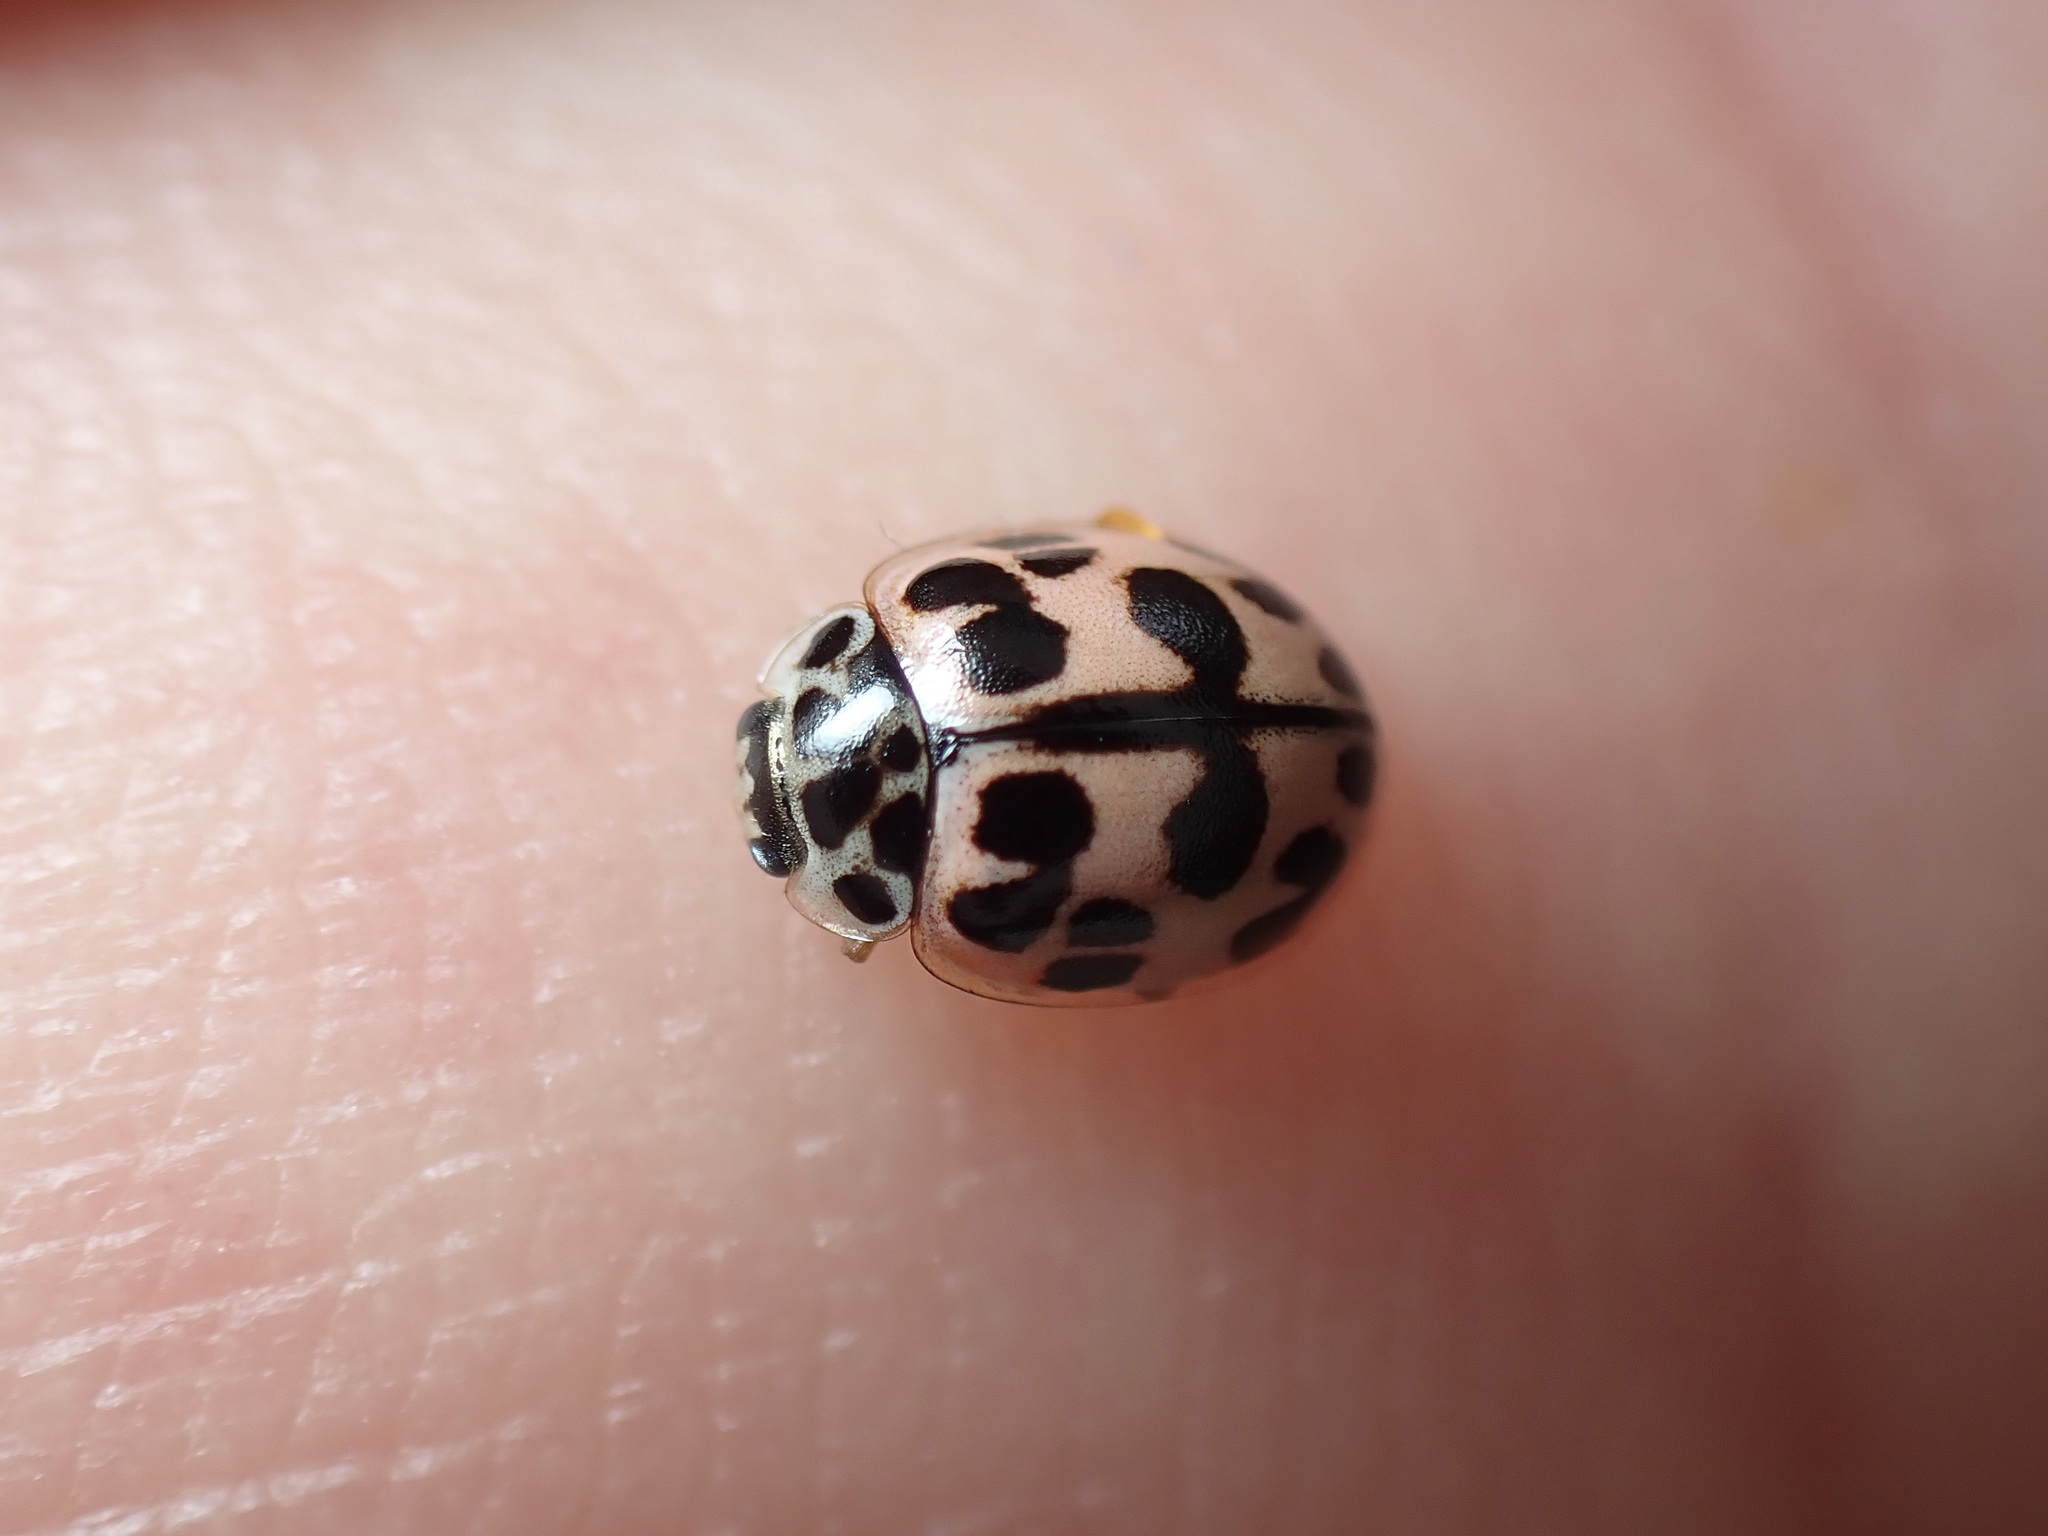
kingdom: Animalia
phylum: Arthropoda
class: Insecta
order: Coleoptera
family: Coccinellidae
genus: Oenopia
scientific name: Oenopia conglobata
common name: Ladybird beetle
